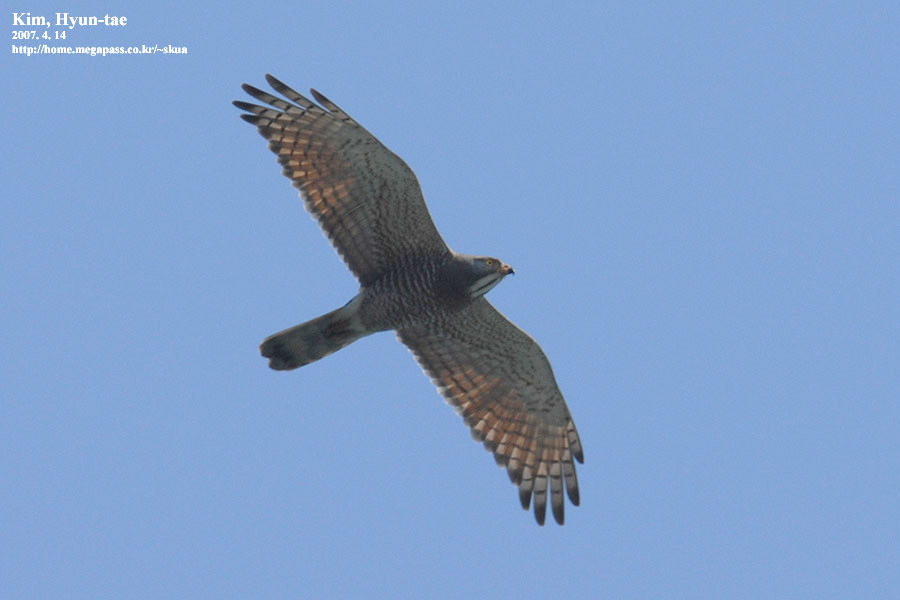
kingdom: Animalia
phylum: Chordata
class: Aves
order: Accipitriformes
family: Accipitridae
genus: Butastur
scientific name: Butastur indicus
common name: Grey-faced buzzard
